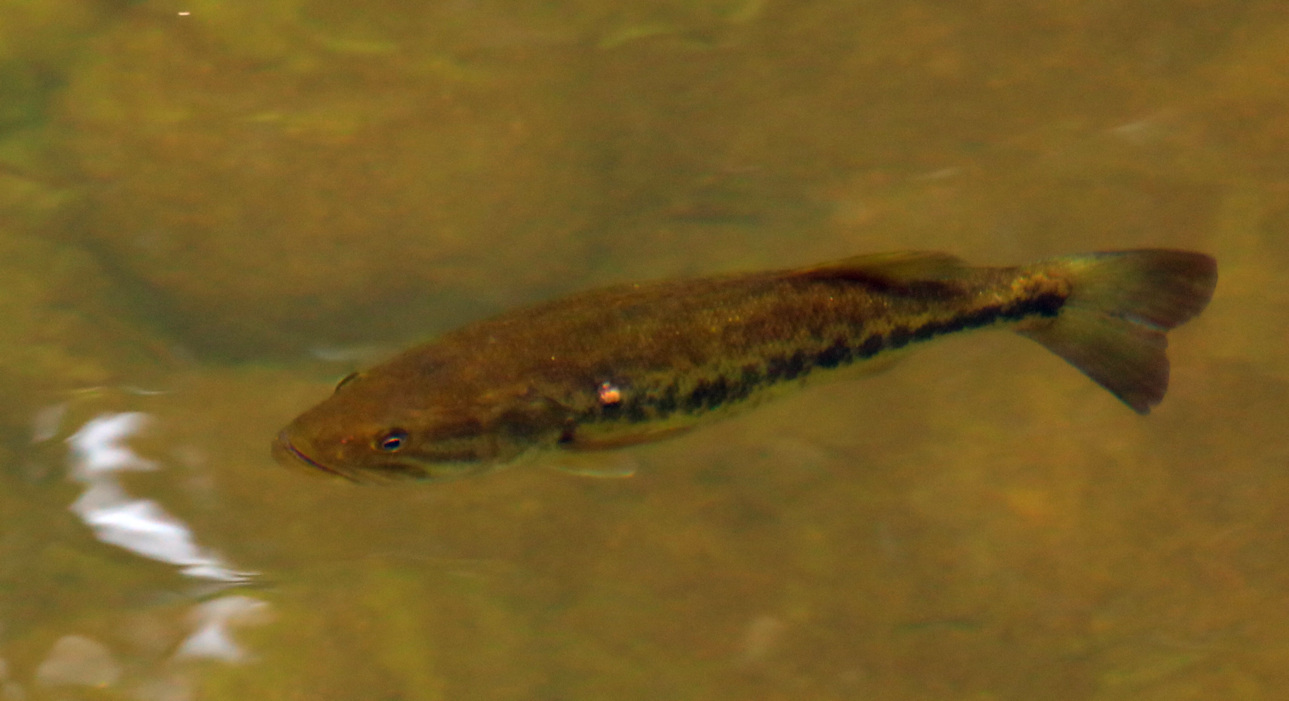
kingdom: Animalia
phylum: Chordata
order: Perciformes
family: Centrarchidae
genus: Micropterus
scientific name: Micropterus
